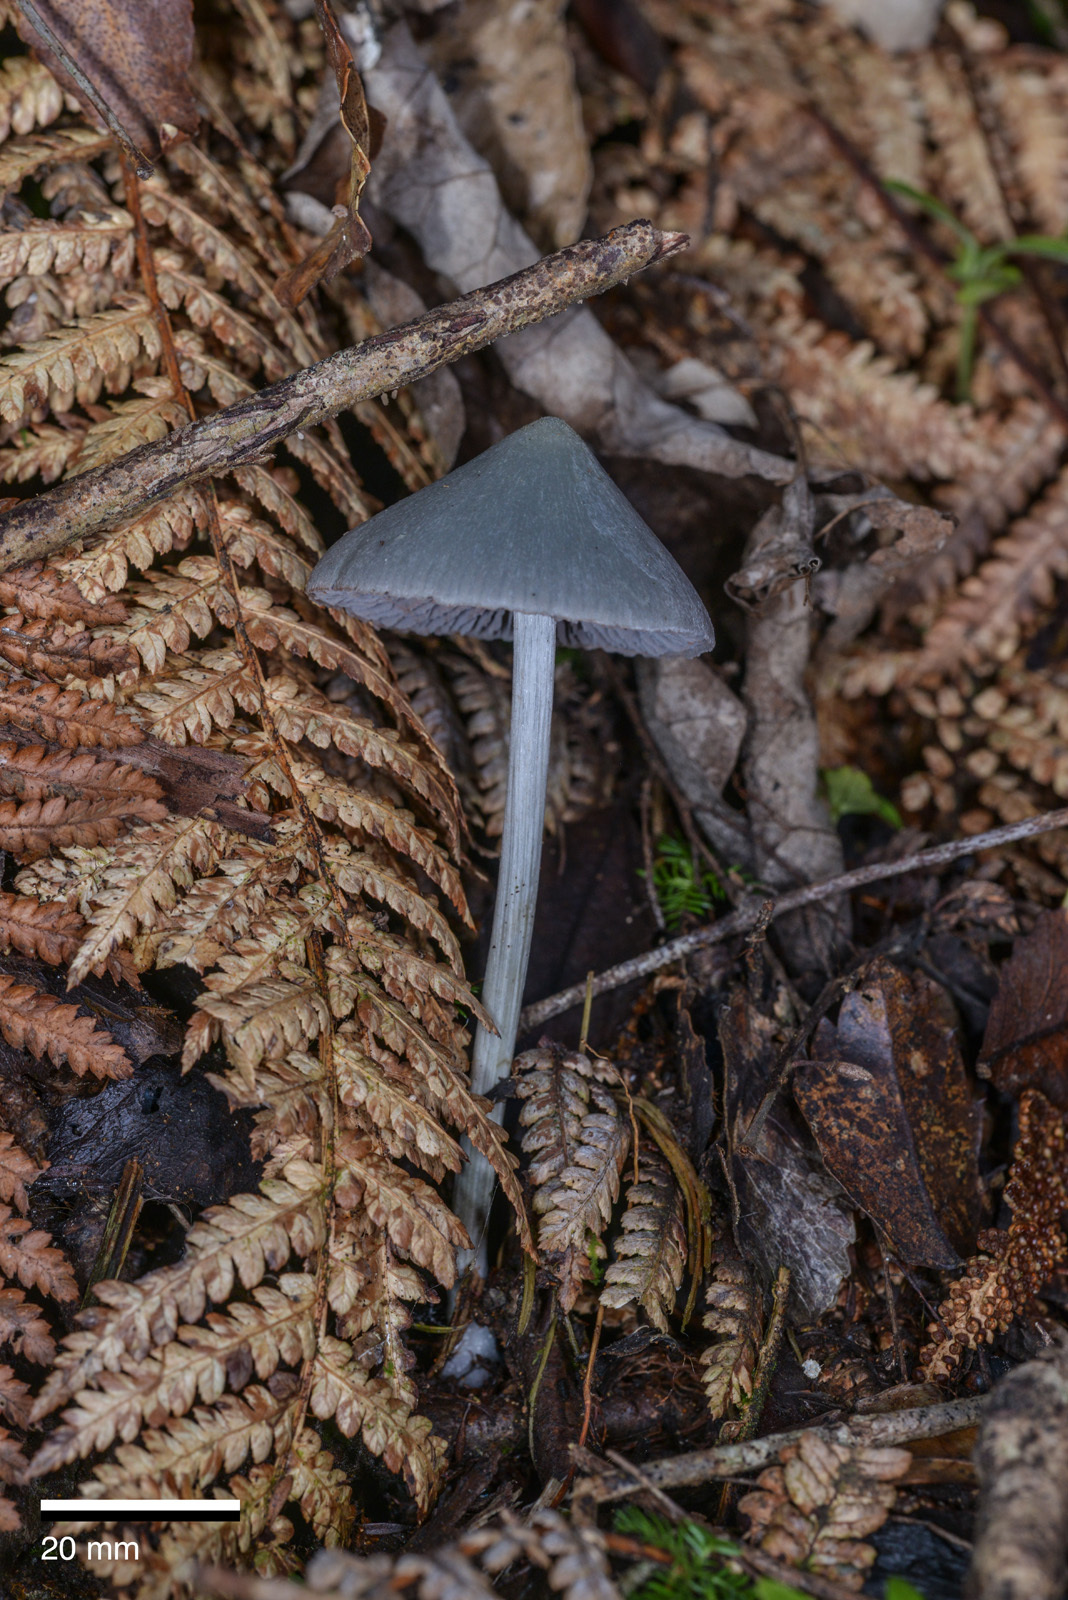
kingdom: Fungi
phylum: Basidiomycota
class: Agaricomycetes
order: Agaricales
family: Entolomataceae
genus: Entoloma
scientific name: Entoloma canoconicum
